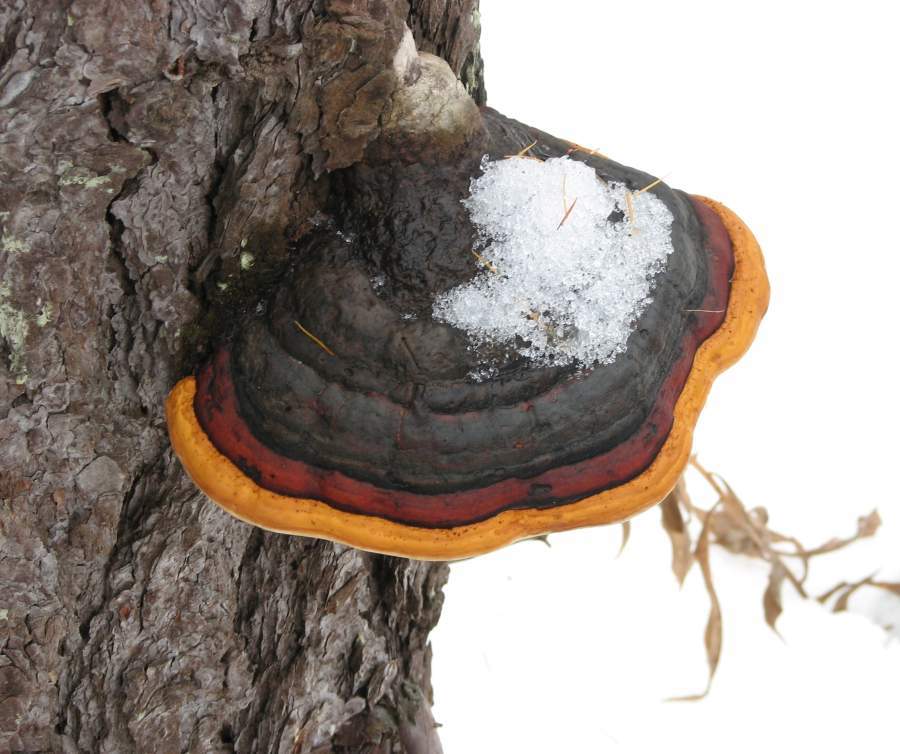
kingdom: Fungi
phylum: Basidiomycota
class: Agaricomycetes
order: Polyporales
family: Fomitopsidaceae
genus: Fomitopsis
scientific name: Fomitopsis mounceae
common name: Northern red belt
